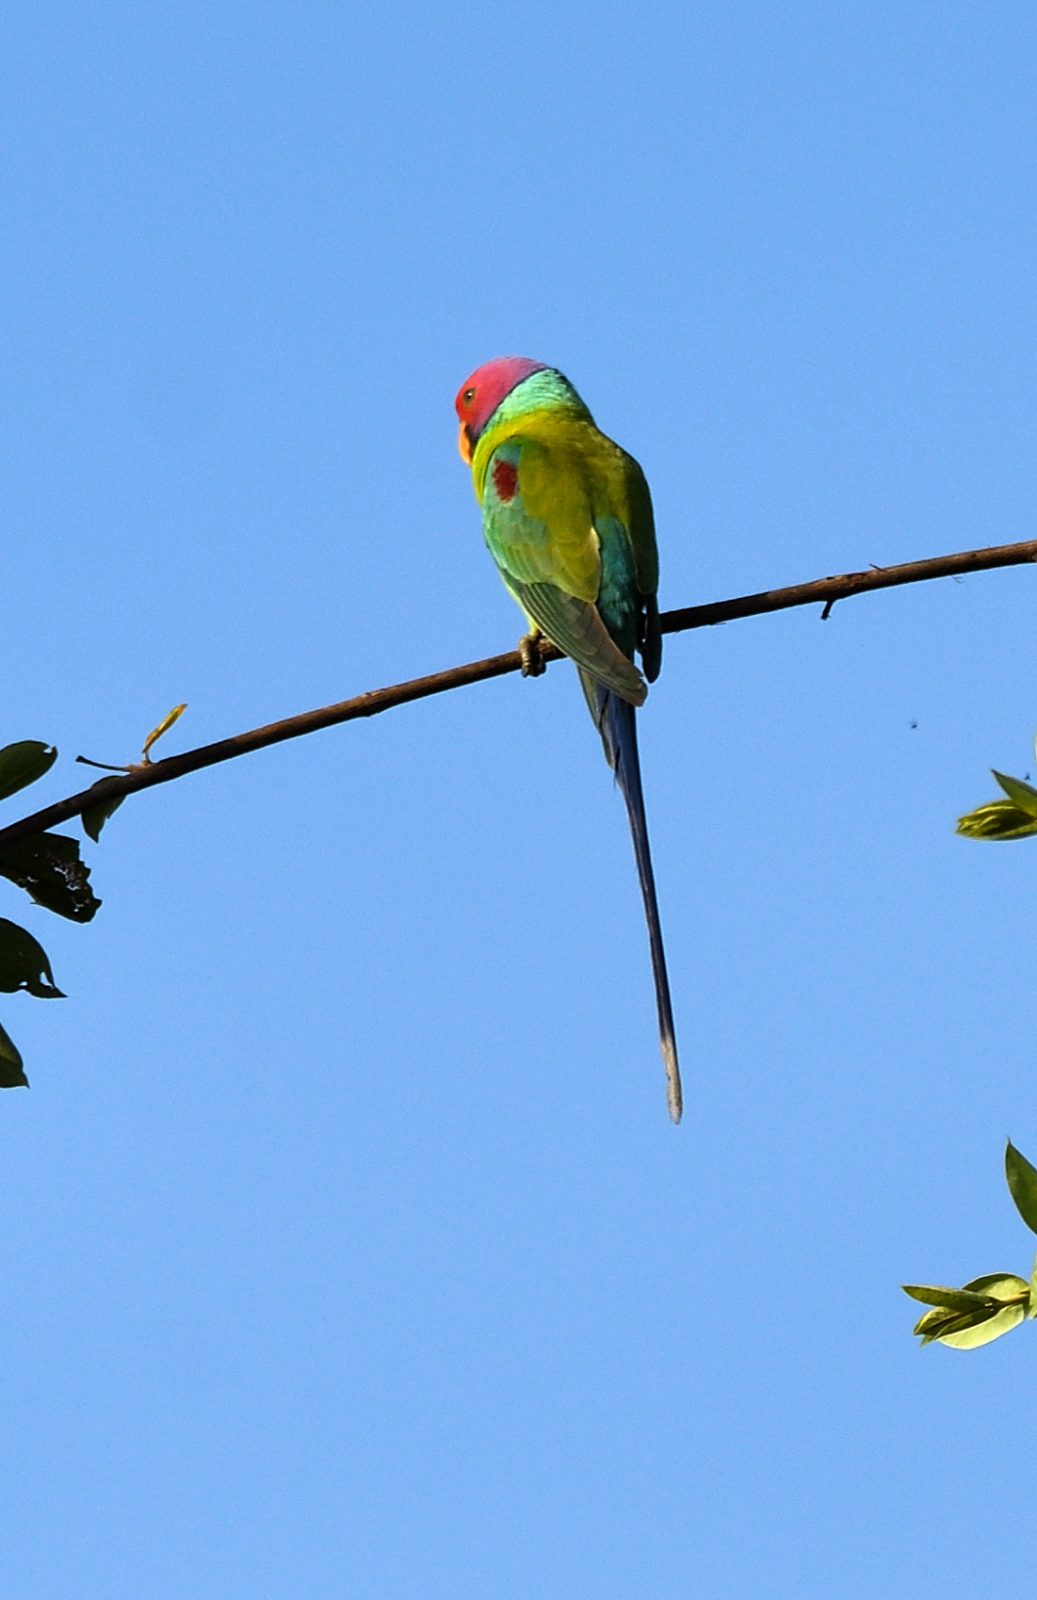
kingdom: Animalia
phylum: Chordata
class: Aves
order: Psittaciformes
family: Psittacidae
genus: Psittacula
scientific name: Psittacula cyanocephala
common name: Plum-headed parakeet
